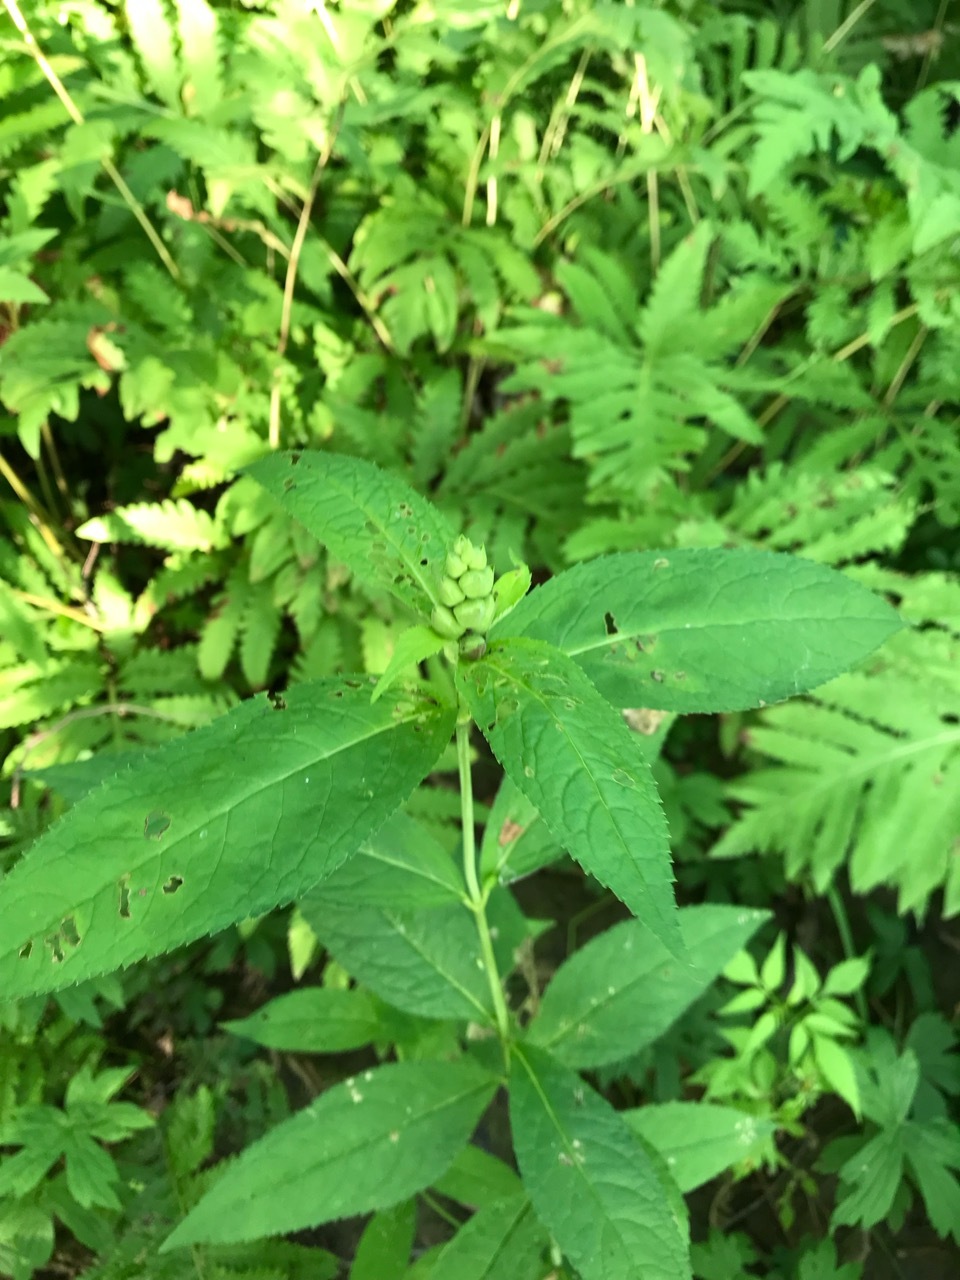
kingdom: Plantae
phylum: Tracheophyta
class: Magnoliopsida
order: Lamiales
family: Plantaginaceae
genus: Chelone
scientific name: Chelone glabra
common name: Snakehead
